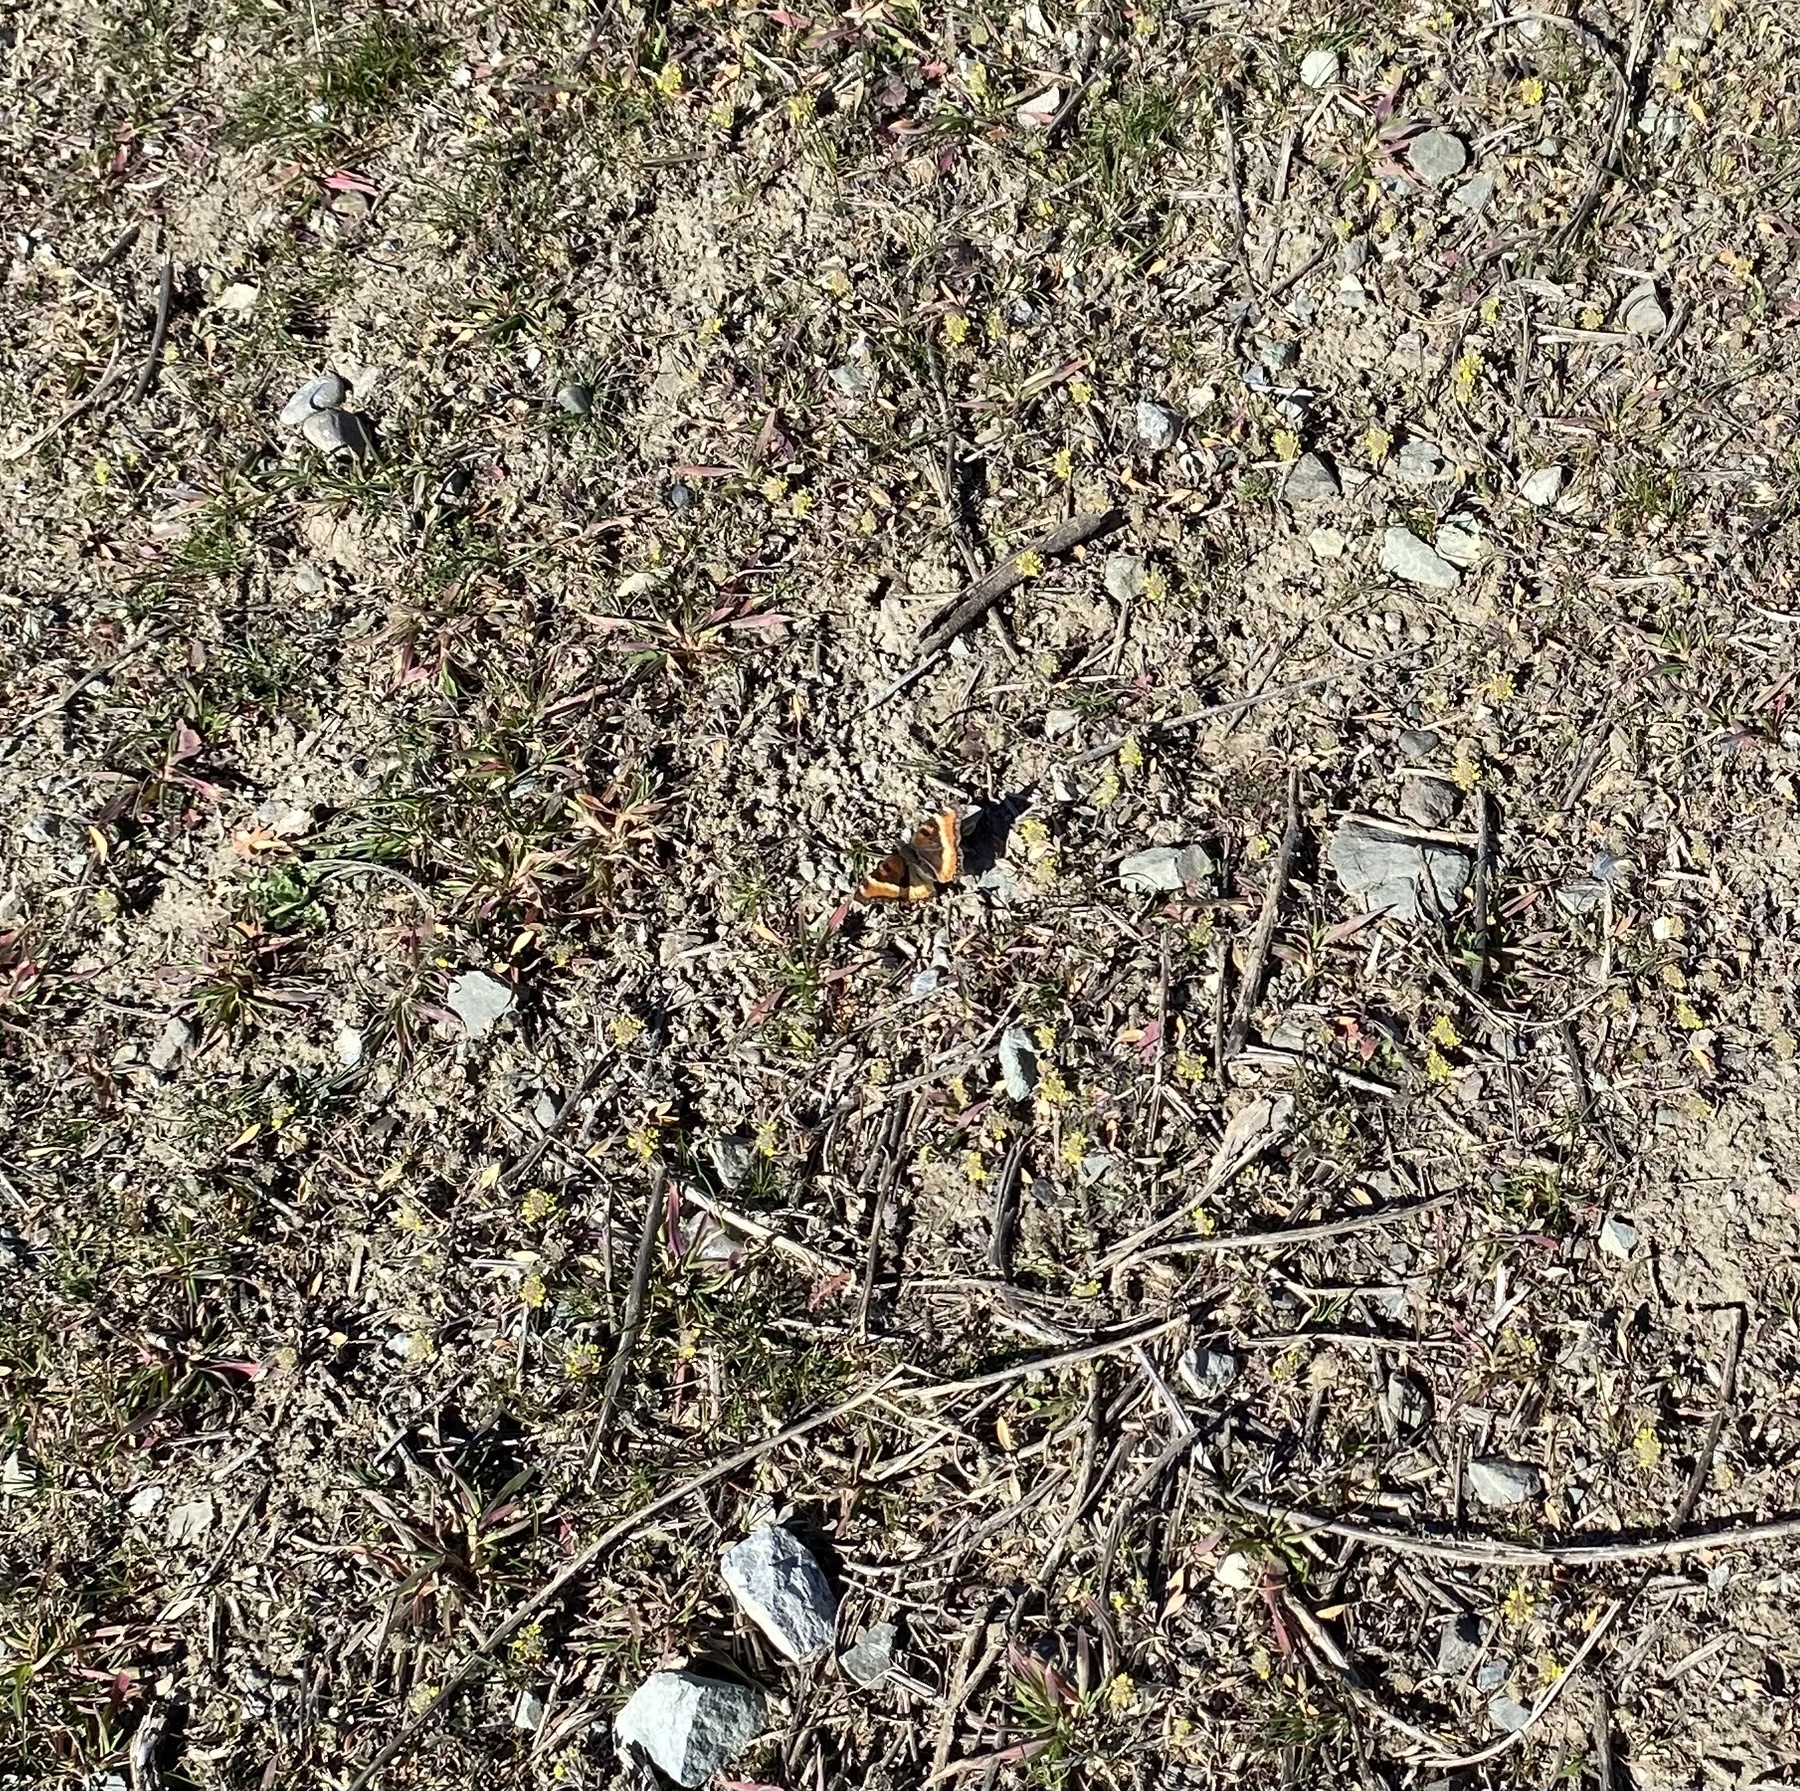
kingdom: Animalia
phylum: Arthropoda
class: Insecta
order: Lepidoptera
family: Nymphalidae
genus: Aglais
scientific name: Aglais milberti
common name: Milbert's tortoiseshell
